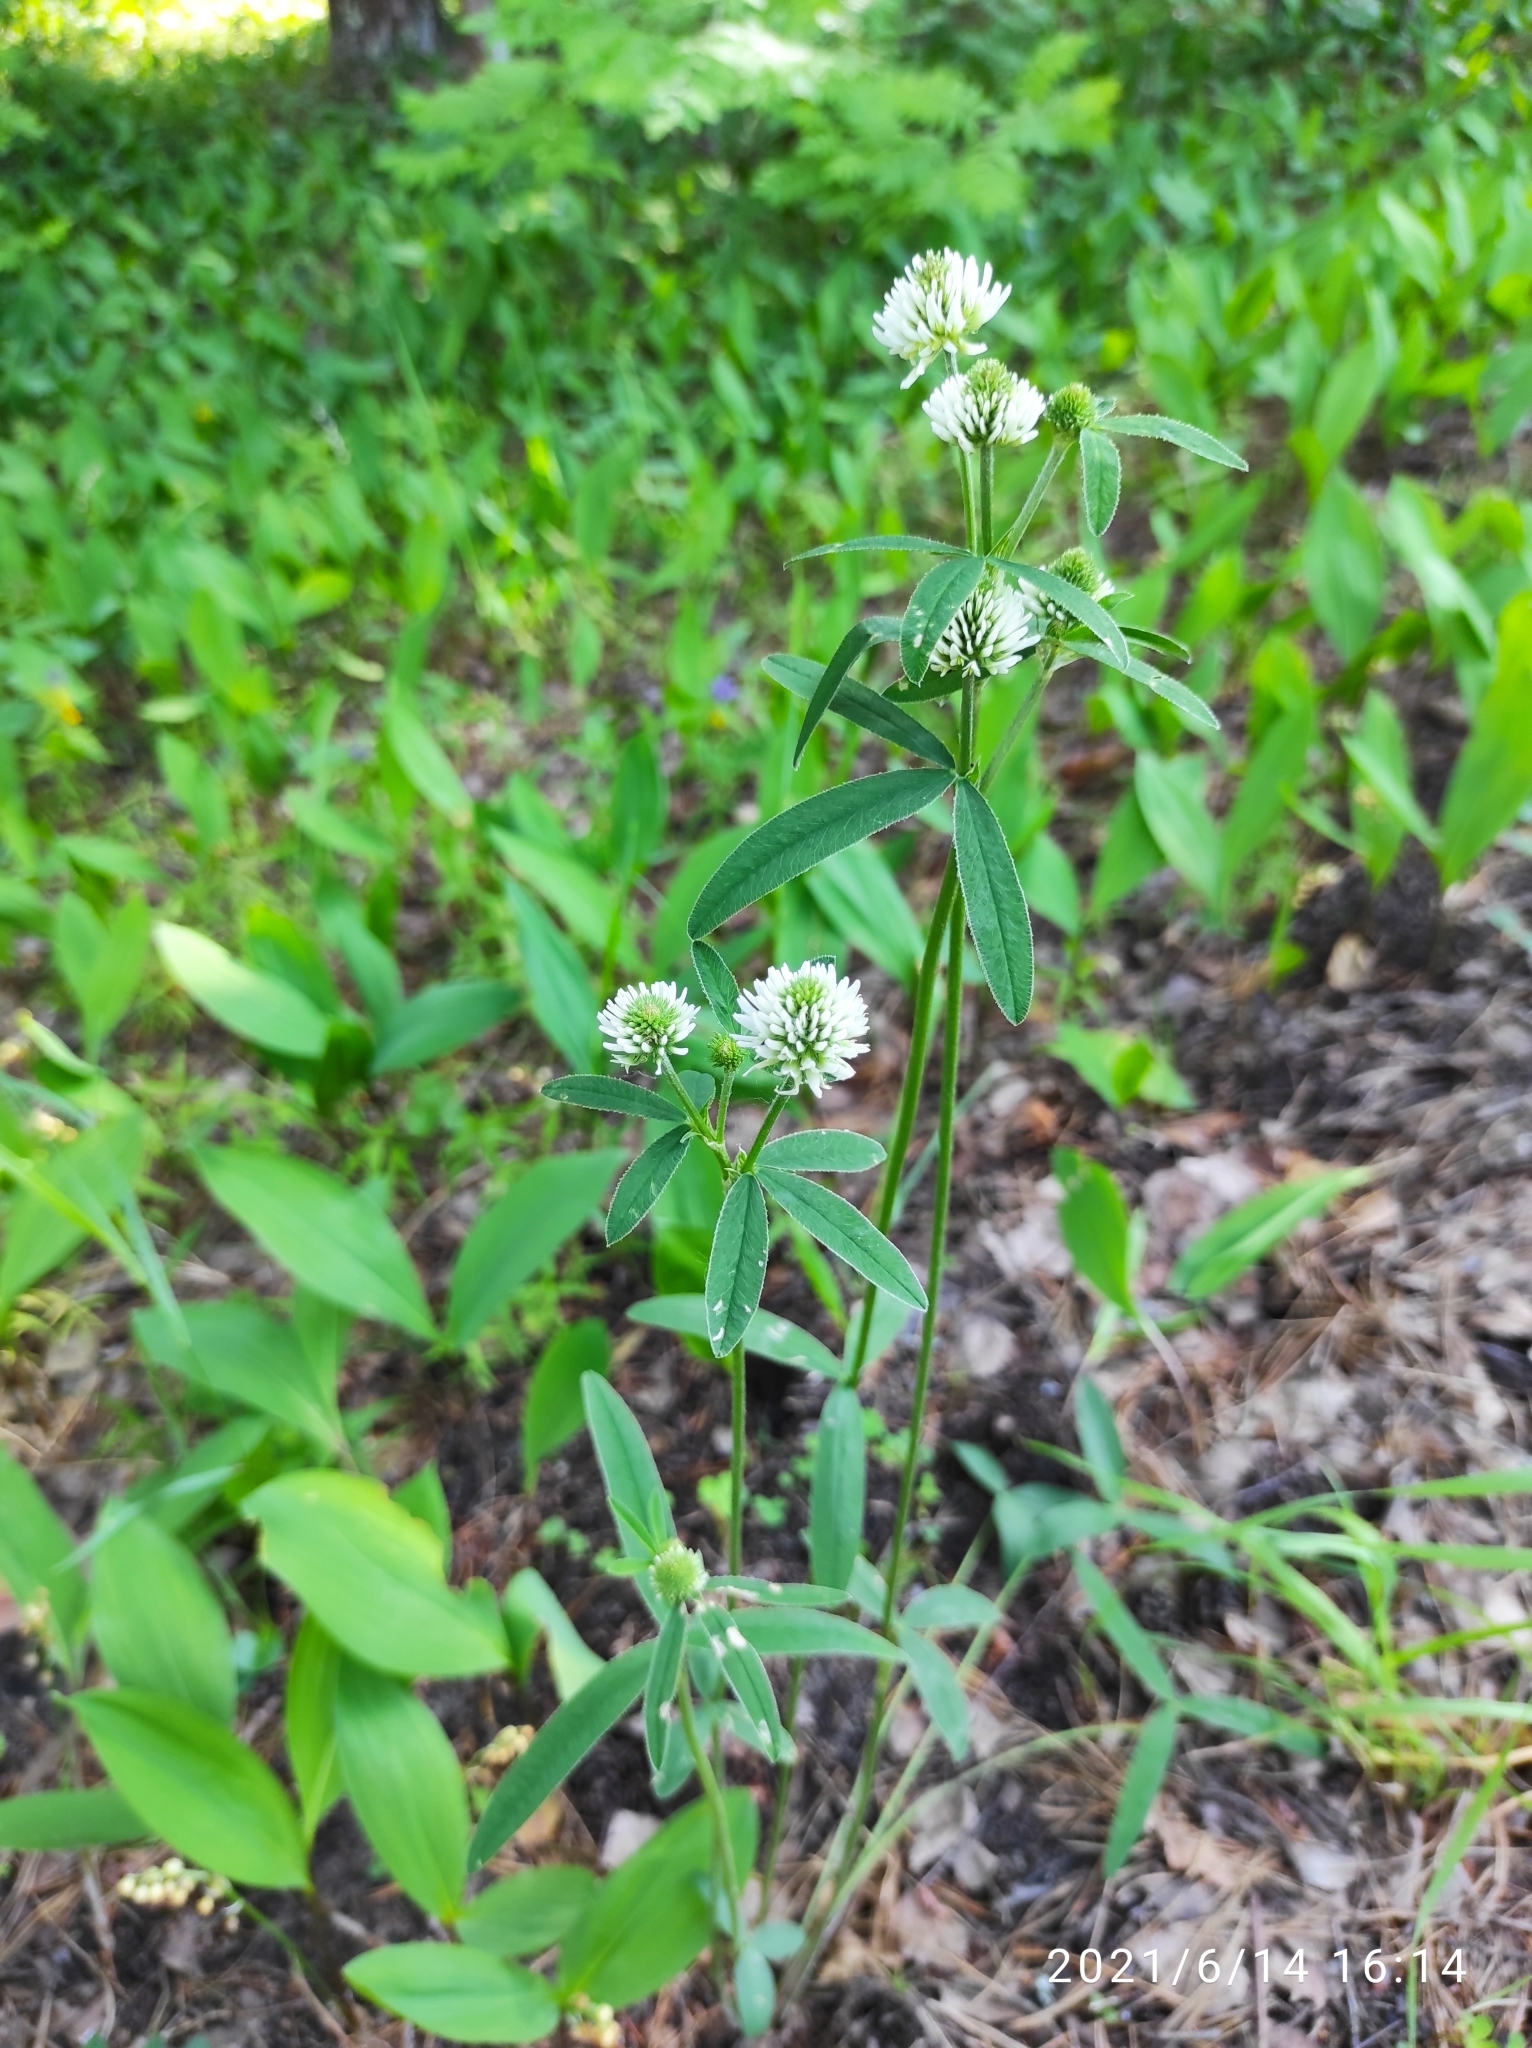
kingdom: Plantae
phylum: Tracheophyta
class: Magnoliopsida
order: Fabales
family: Fabaceae
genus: Trifolium
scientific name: Trifolium montanum
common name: Mountain clover
